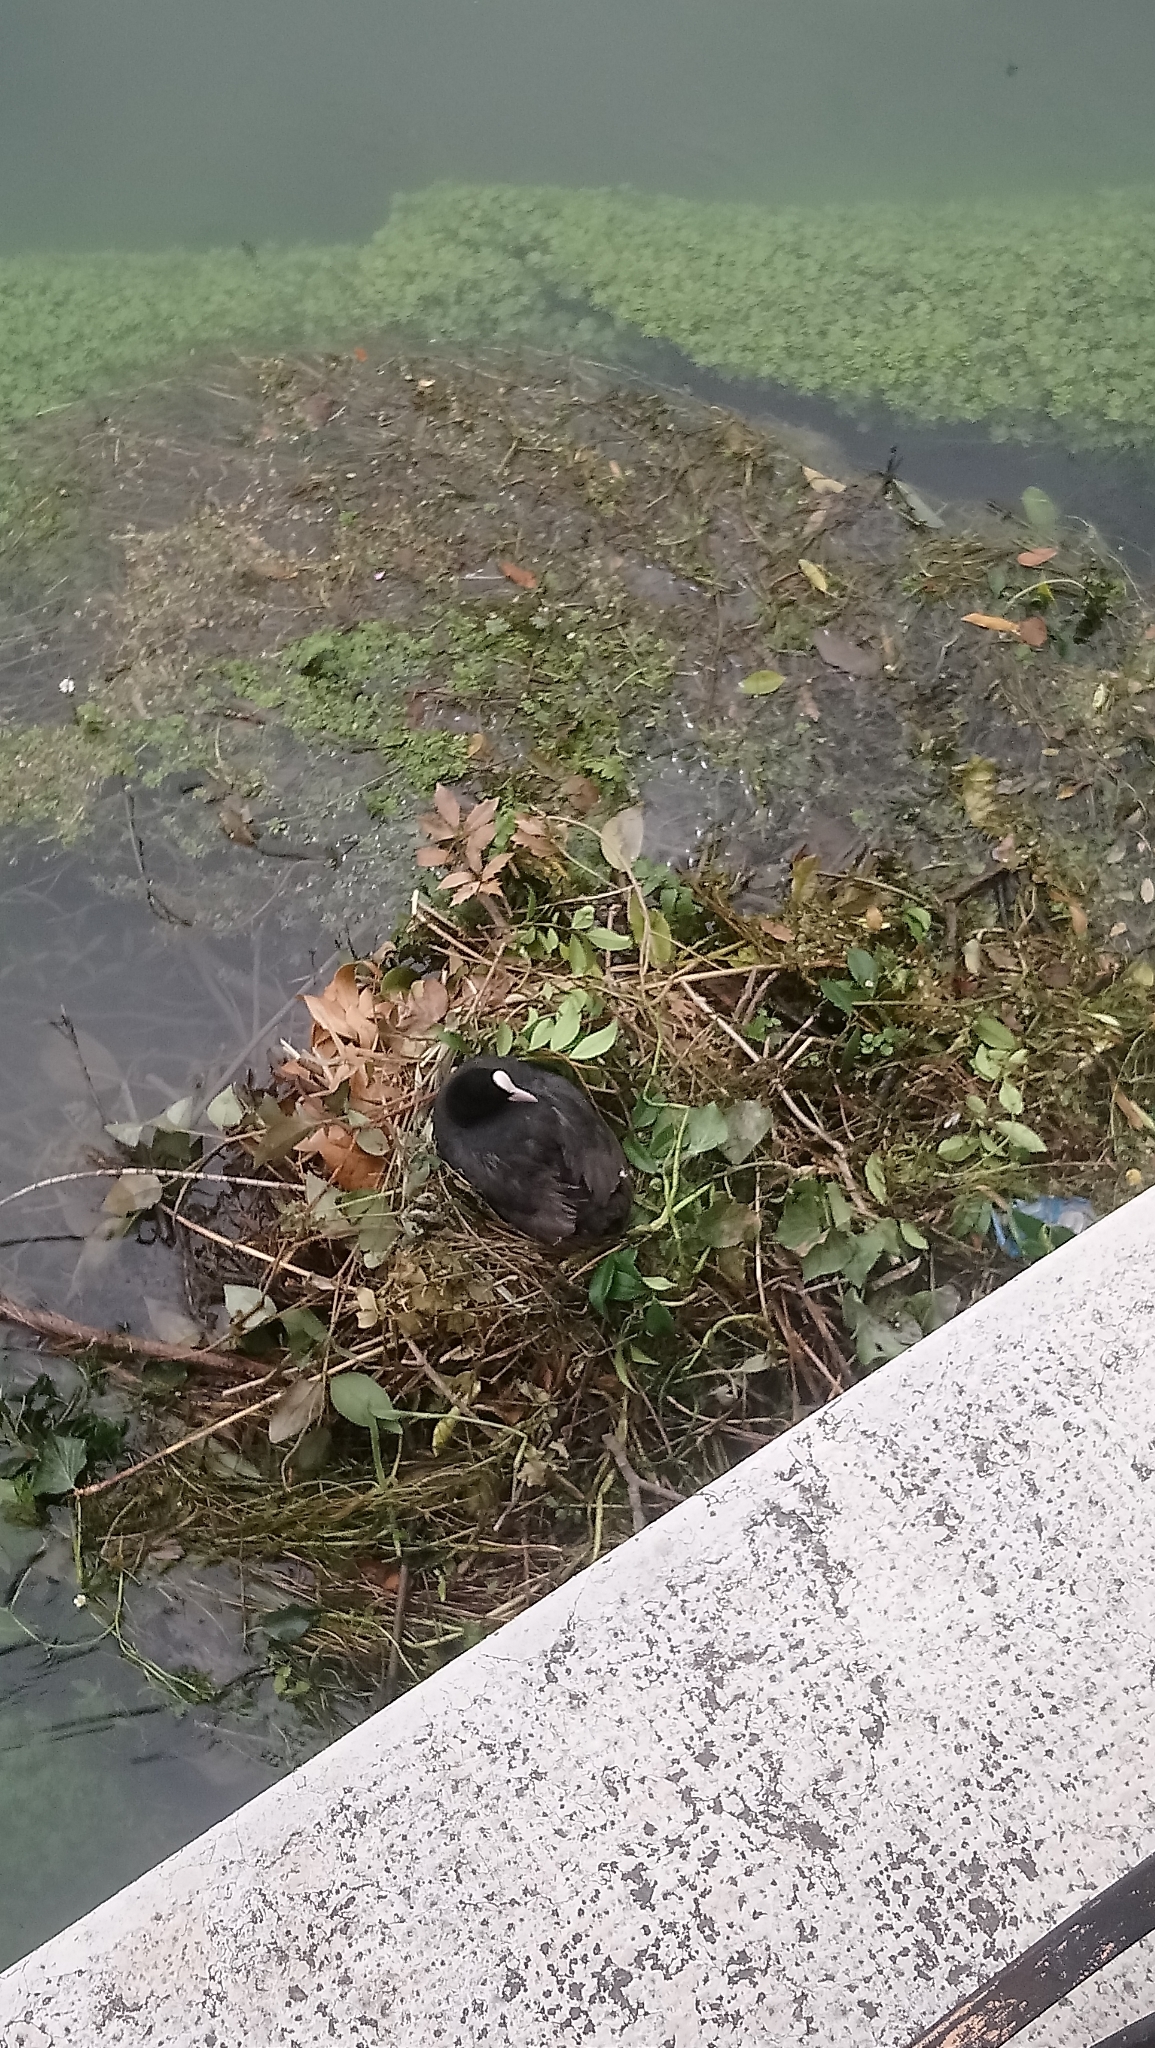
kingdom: Animalia
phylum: Chordata
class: Aves
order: Gruiformes
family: Rallidae
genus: Fulica
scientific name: Fulica atra
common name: Eurasian coot
